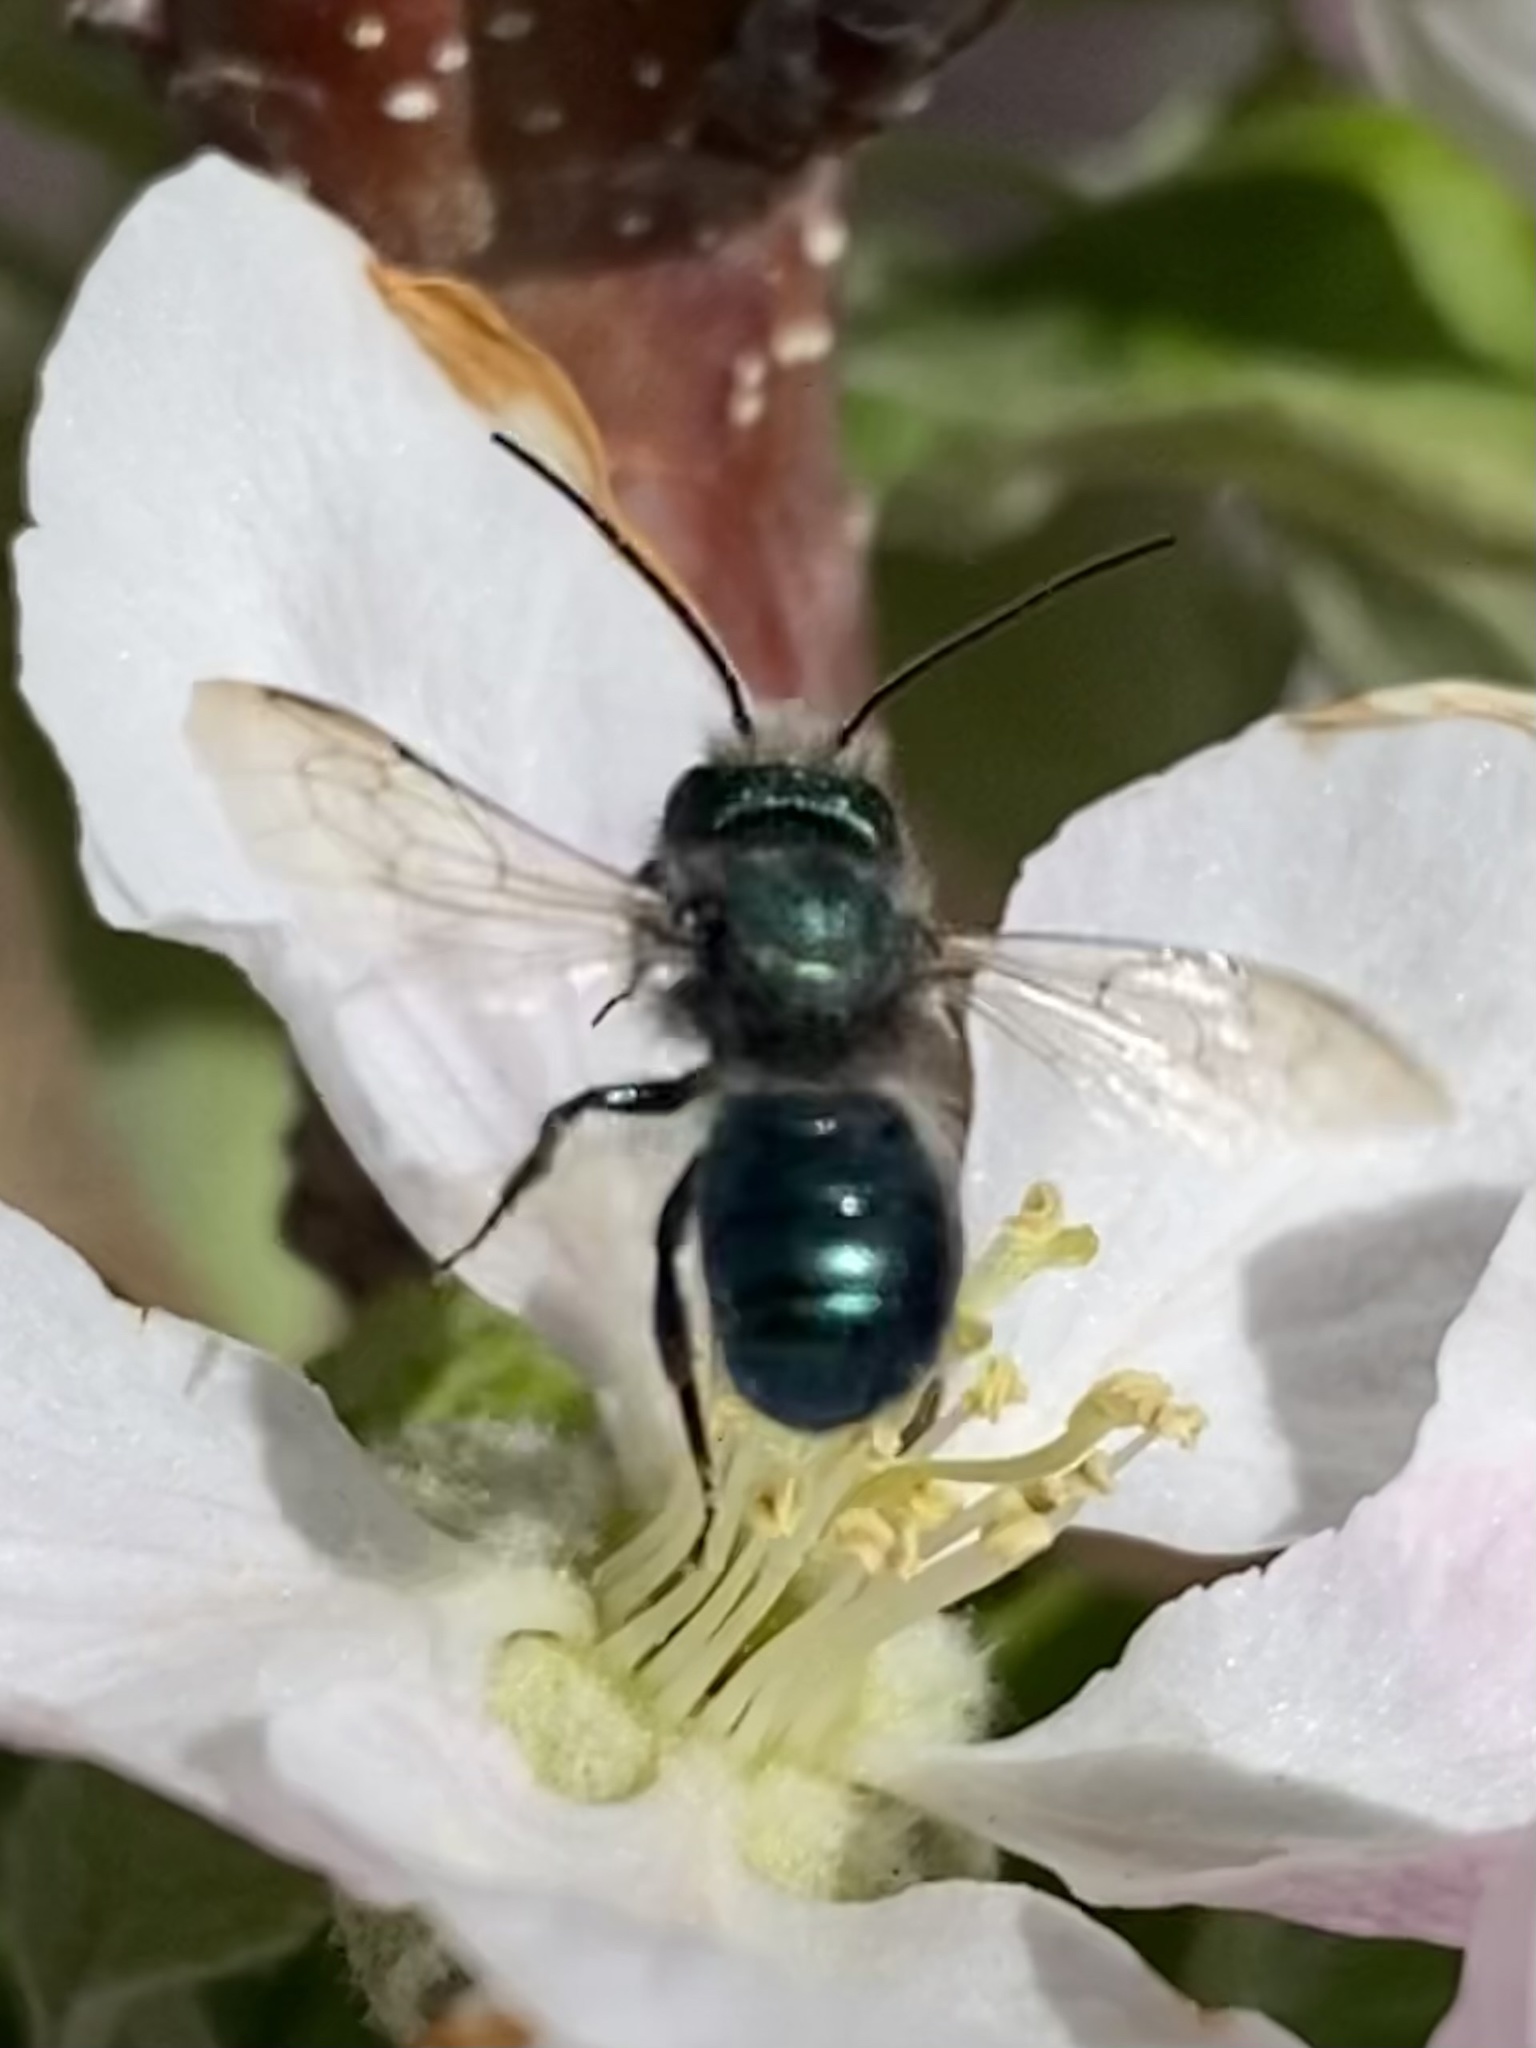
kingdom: Animalia
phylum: Arthropoda
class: Insecta
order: Hymenoptera
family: Megachilidae
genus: Osmia
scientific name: Osmia ribifloris
